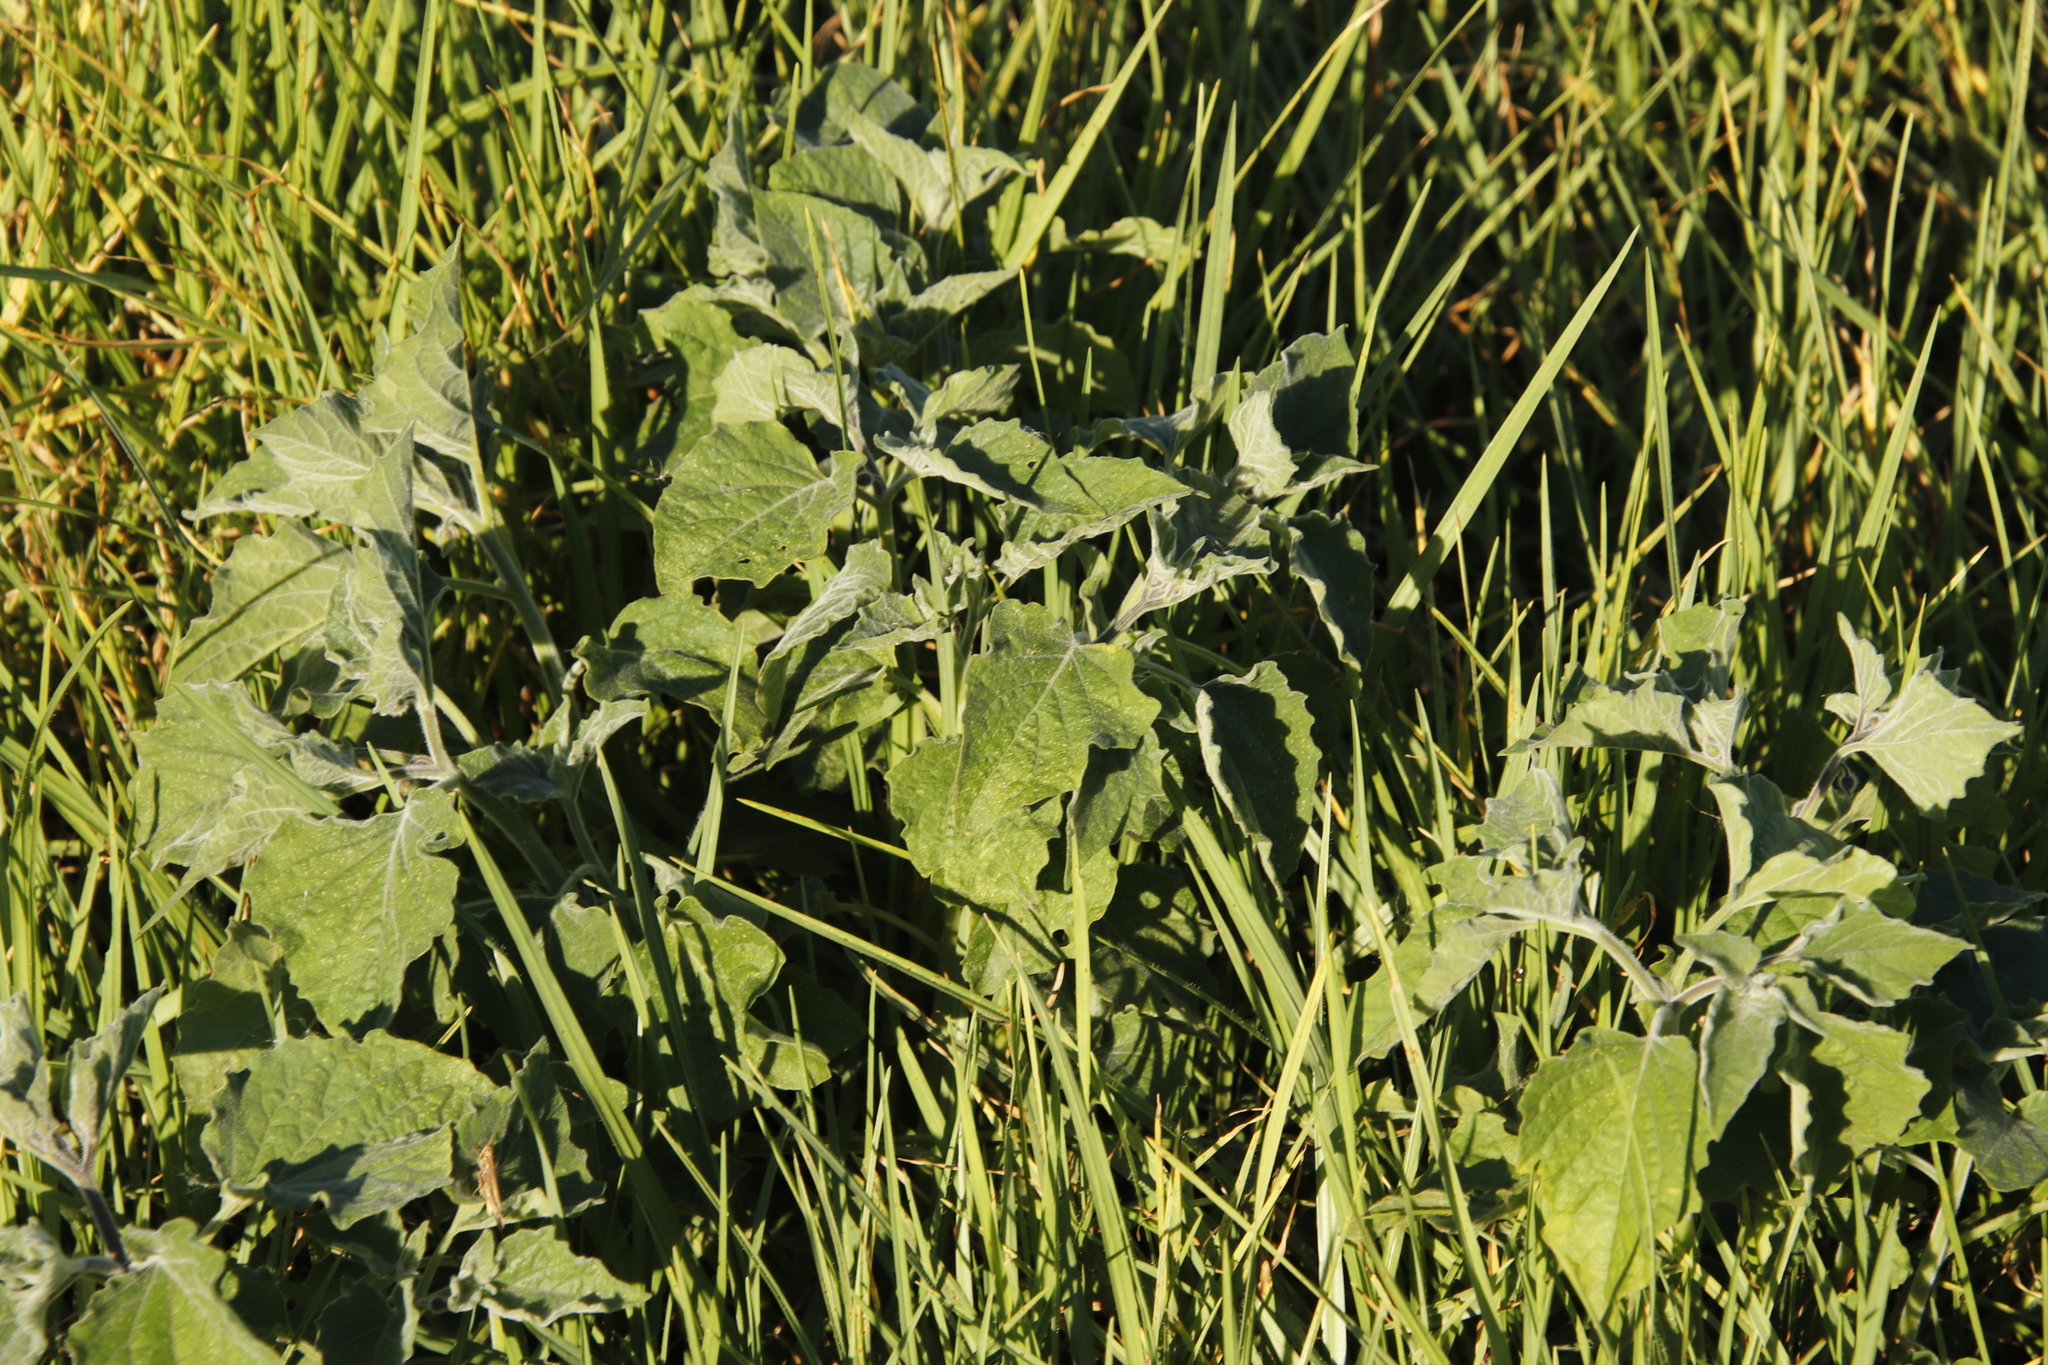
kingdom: Plantae
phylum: Tracheophyta
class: Magnoliopsida
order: Solanales
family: Solanaceae
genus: Physalis
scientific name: Physalis peruviana
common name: Cape-gooseberry
